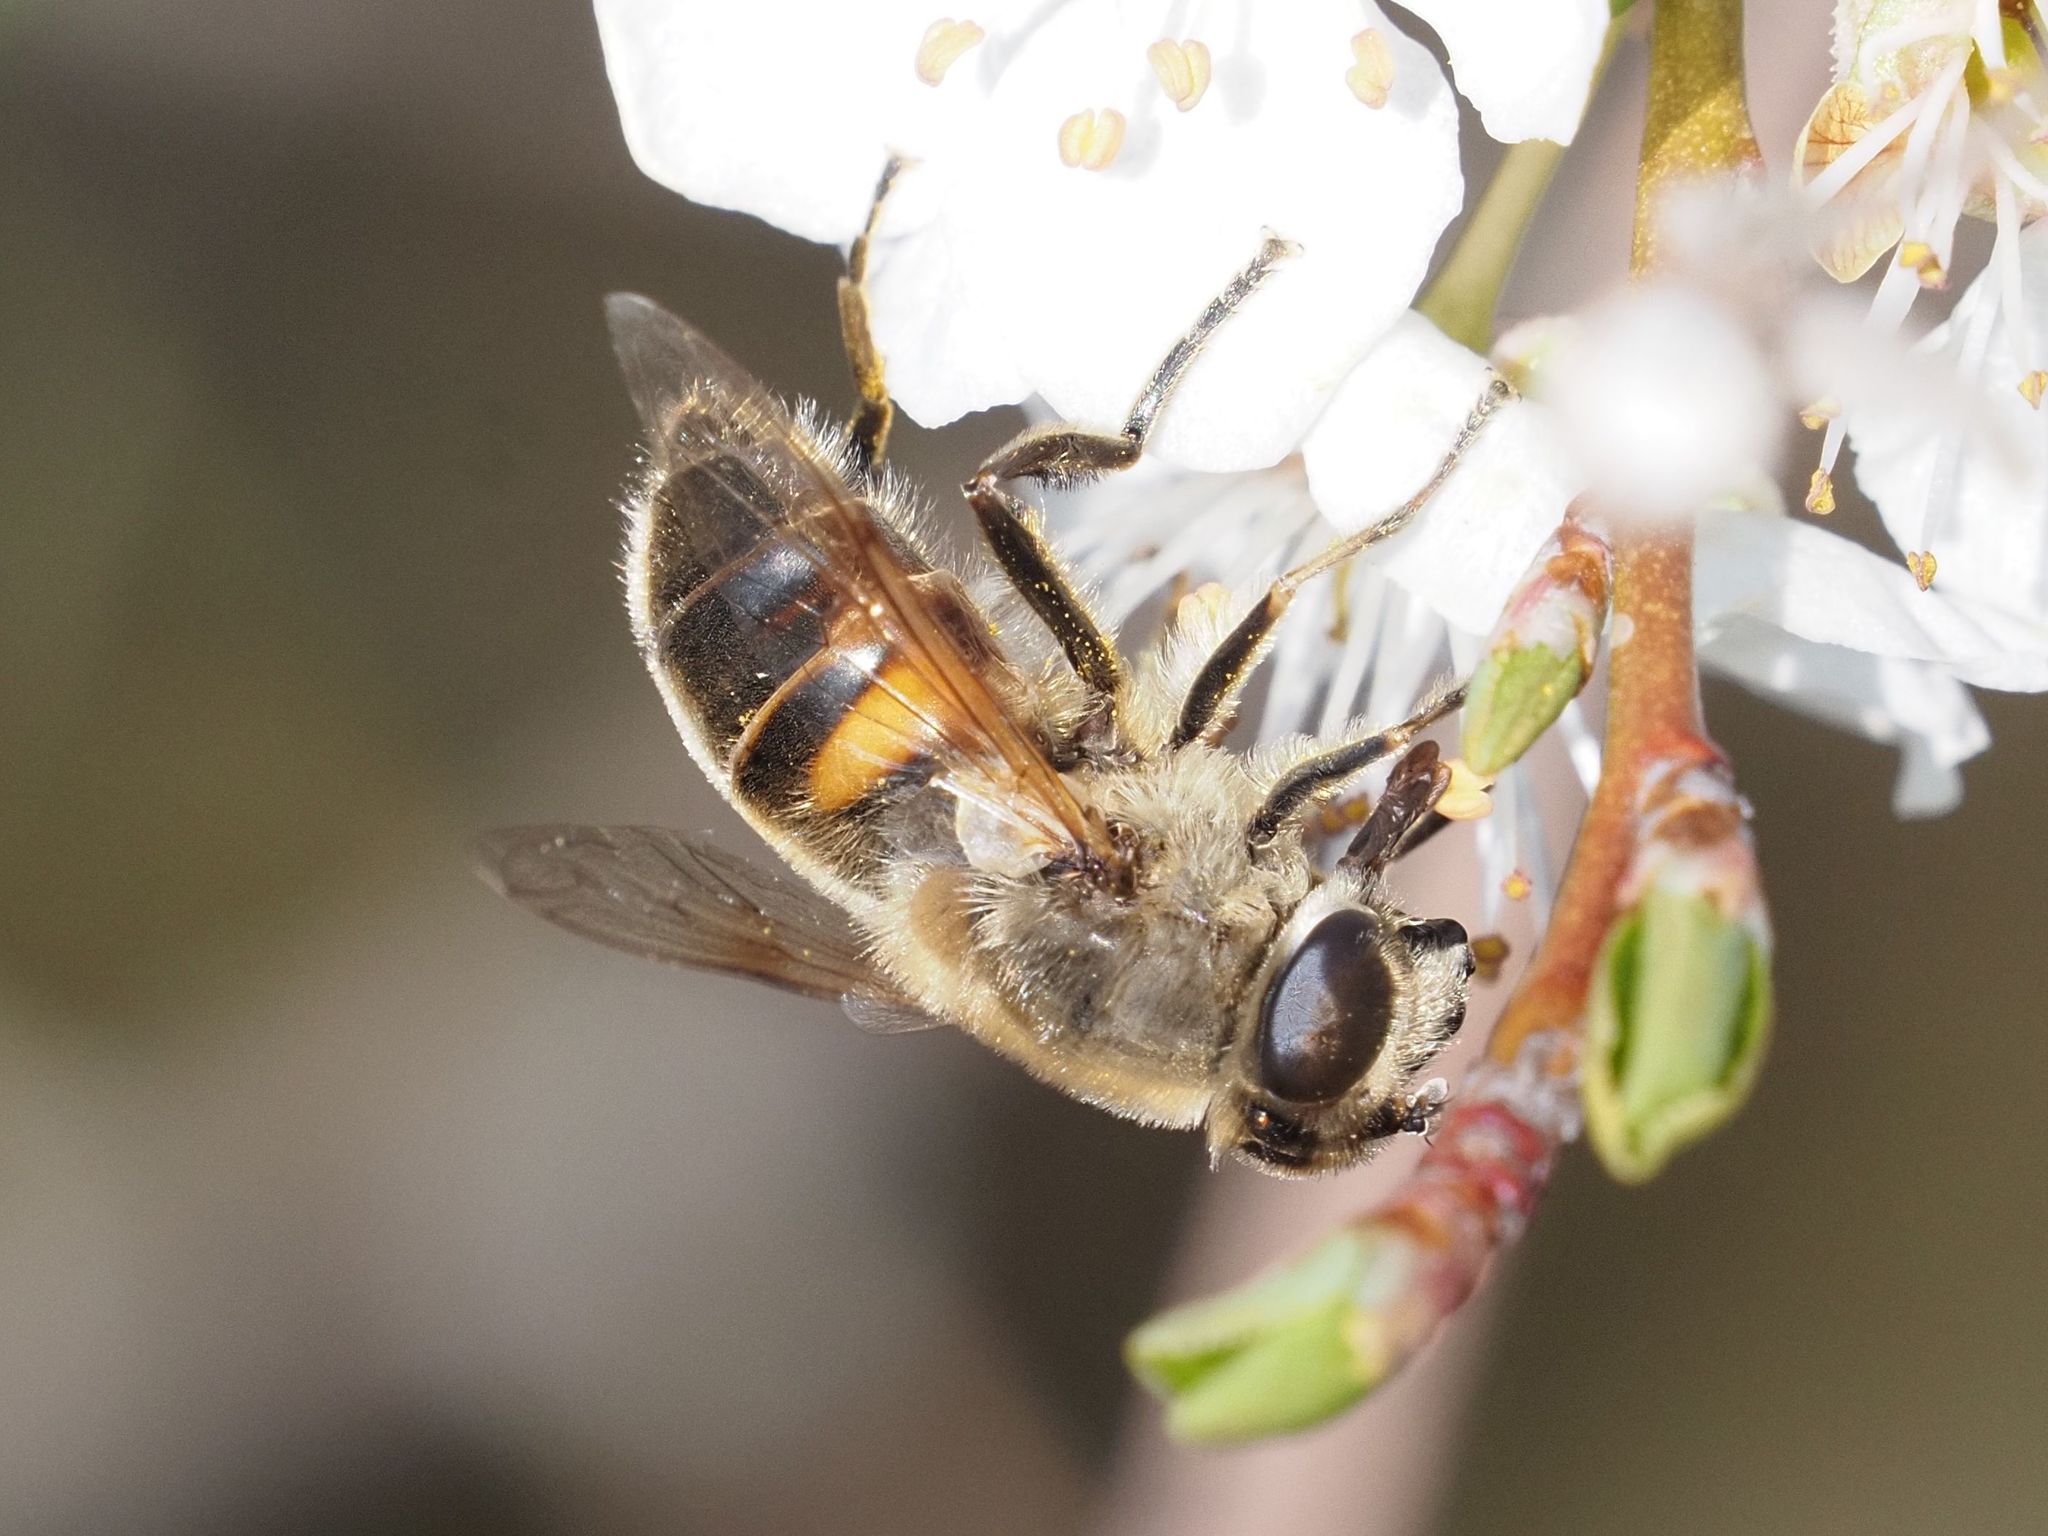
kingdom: Animalia
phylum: Arthropoda
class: Insecta
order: Diptera
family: Syrphidae
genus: Eristalis
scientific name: Eristalis tenax
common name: Drone fly
